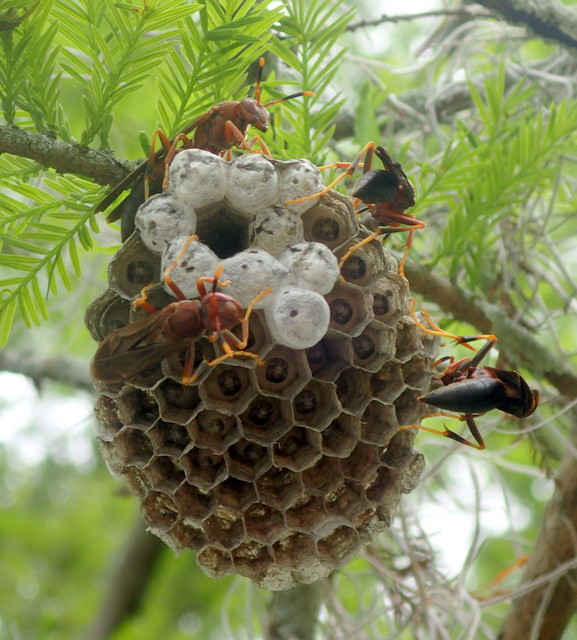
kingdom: Animalia
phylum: Arthropoda
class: Insecta
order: Hymenoptera
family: Eumenidae
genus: Polistes
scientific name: Polistes annularis
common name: Ringed paper wasp
